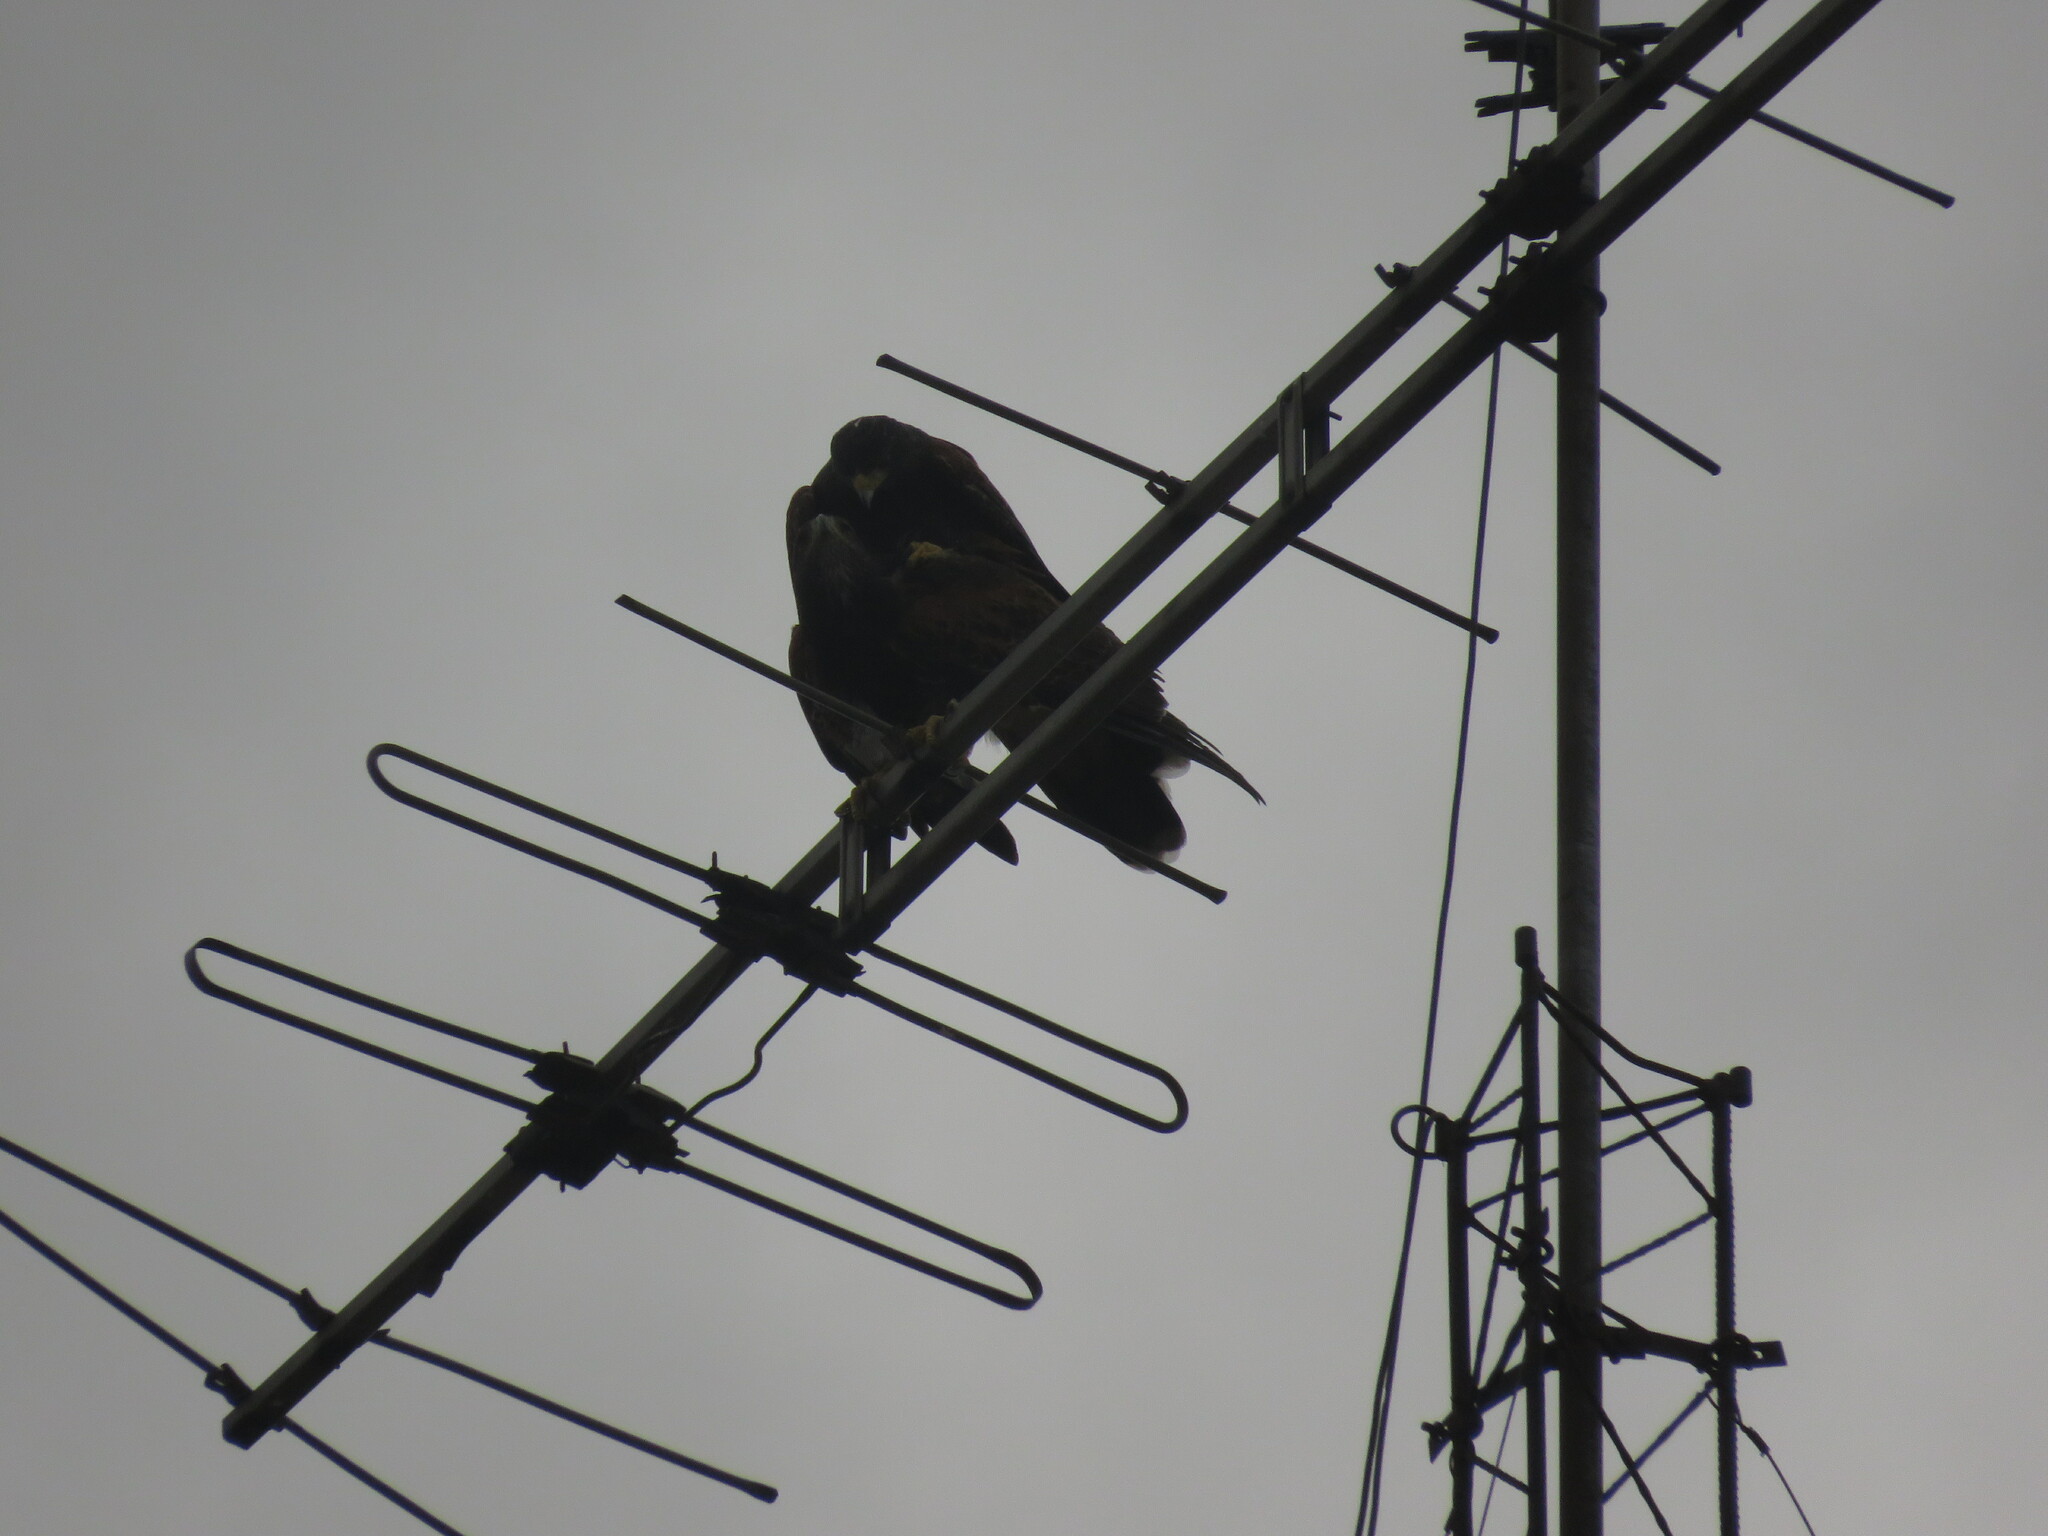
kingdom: Animalia
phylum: Chordata
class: Aves
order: Accipitriformes
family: Accipitridae
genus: Parabuteo
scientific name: Parabuteo unicinctus
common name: Harris's hawk
